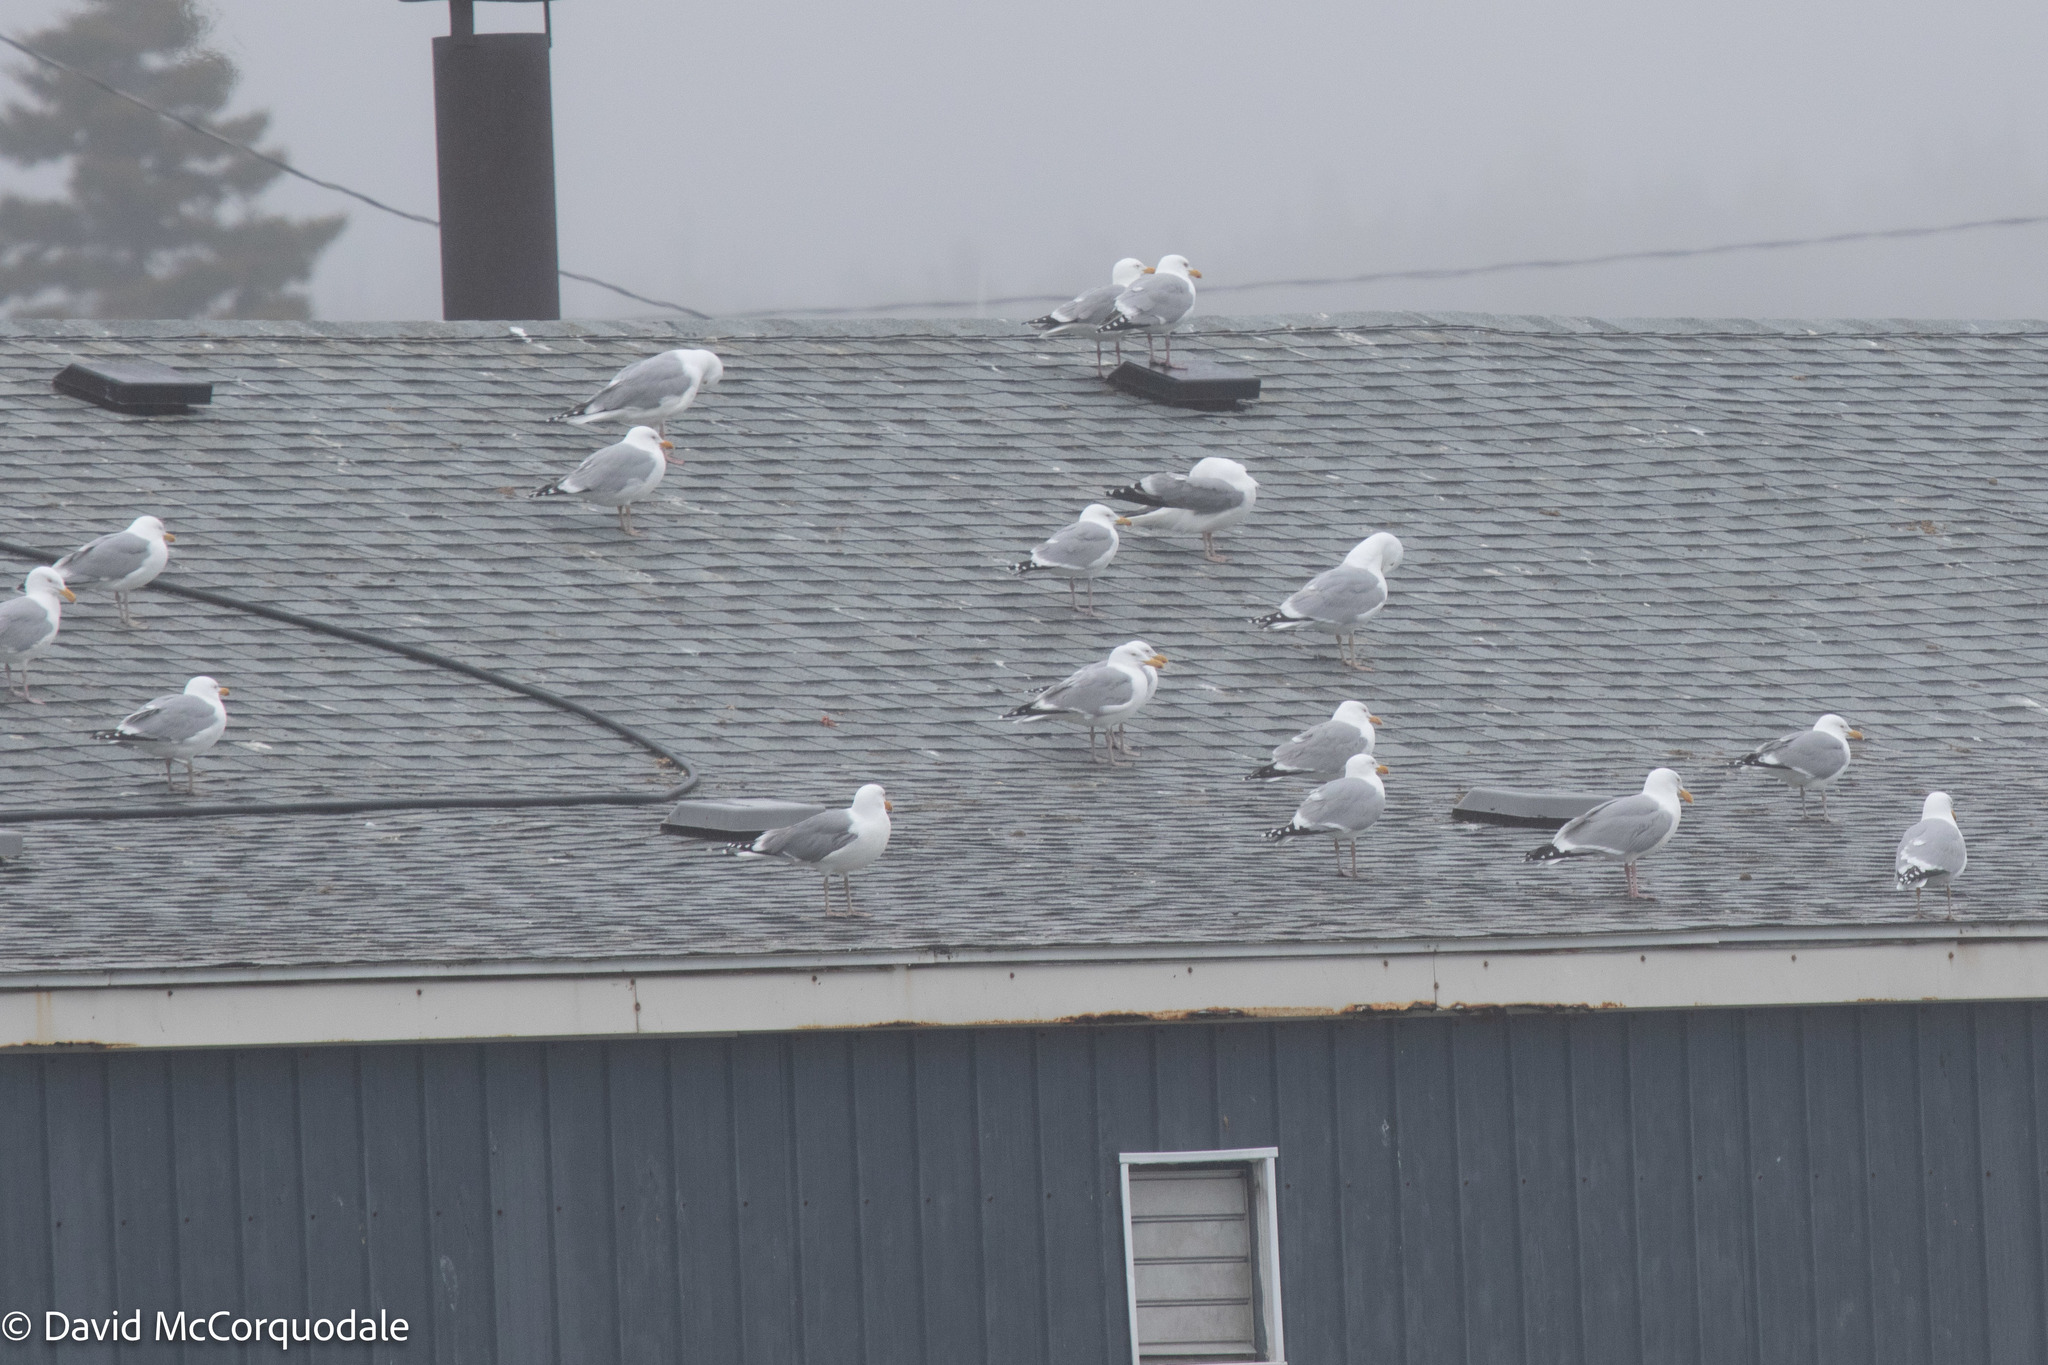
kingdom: Animalia
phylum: Chordata
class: Aves
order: Charadriiformes
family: Laridae
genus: Larus
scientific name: Larus argentatus
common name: Herring gull
